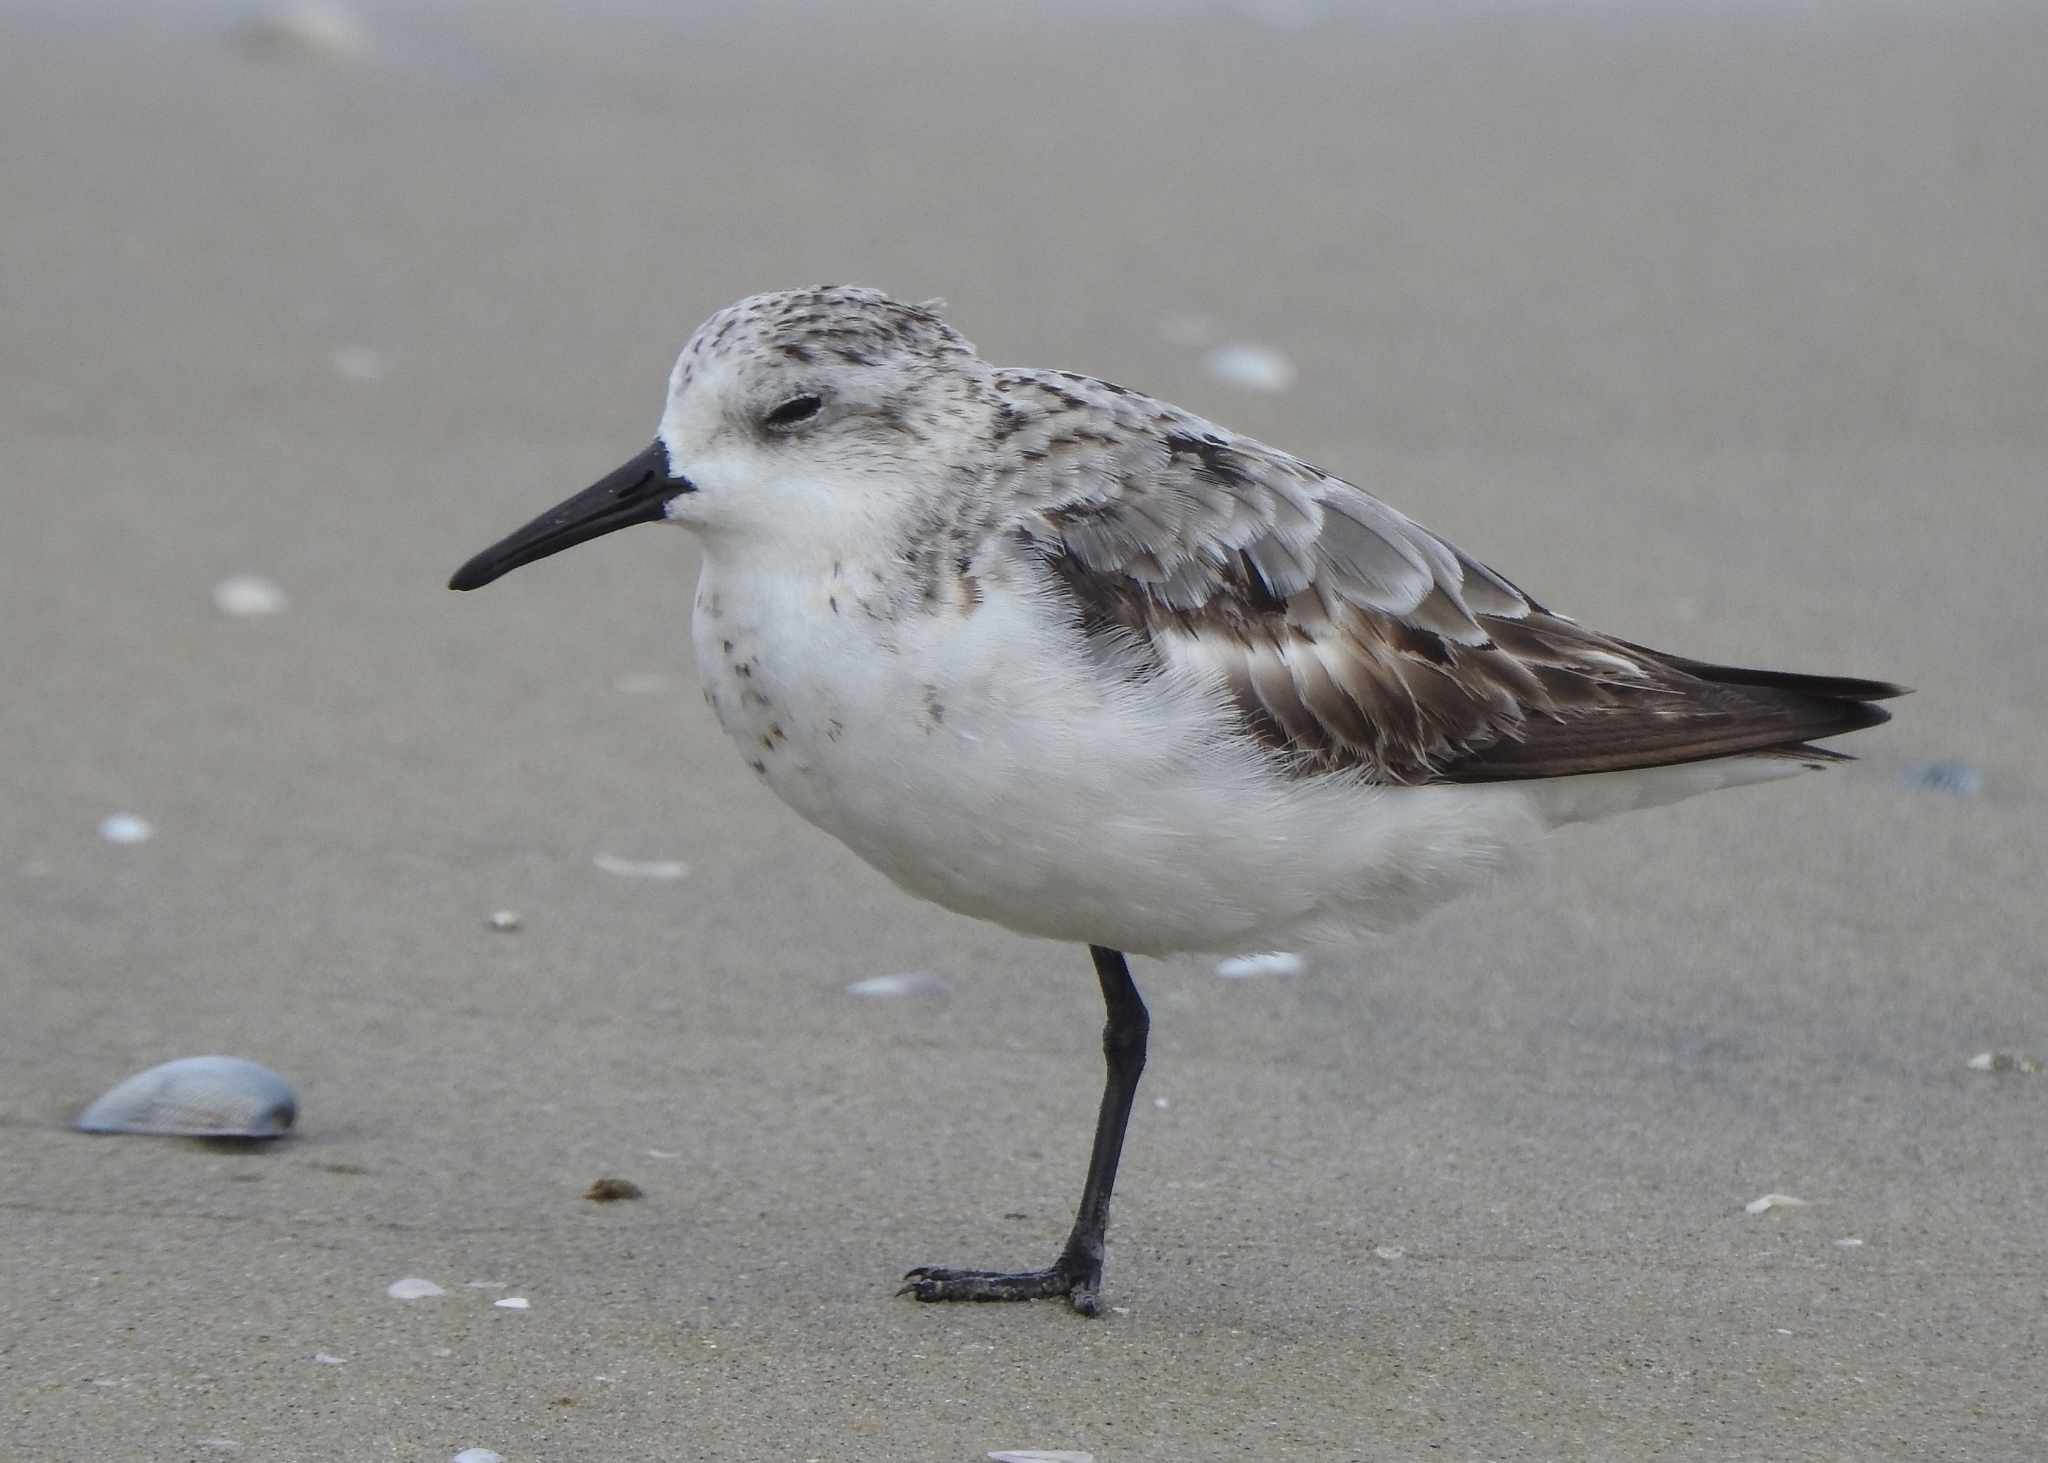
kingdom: Animalia
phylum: Chordata
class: Aves
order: Charadriiformes
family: Scolopacidae
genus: Calidris
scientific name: Calidris alba
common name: Sanderling
